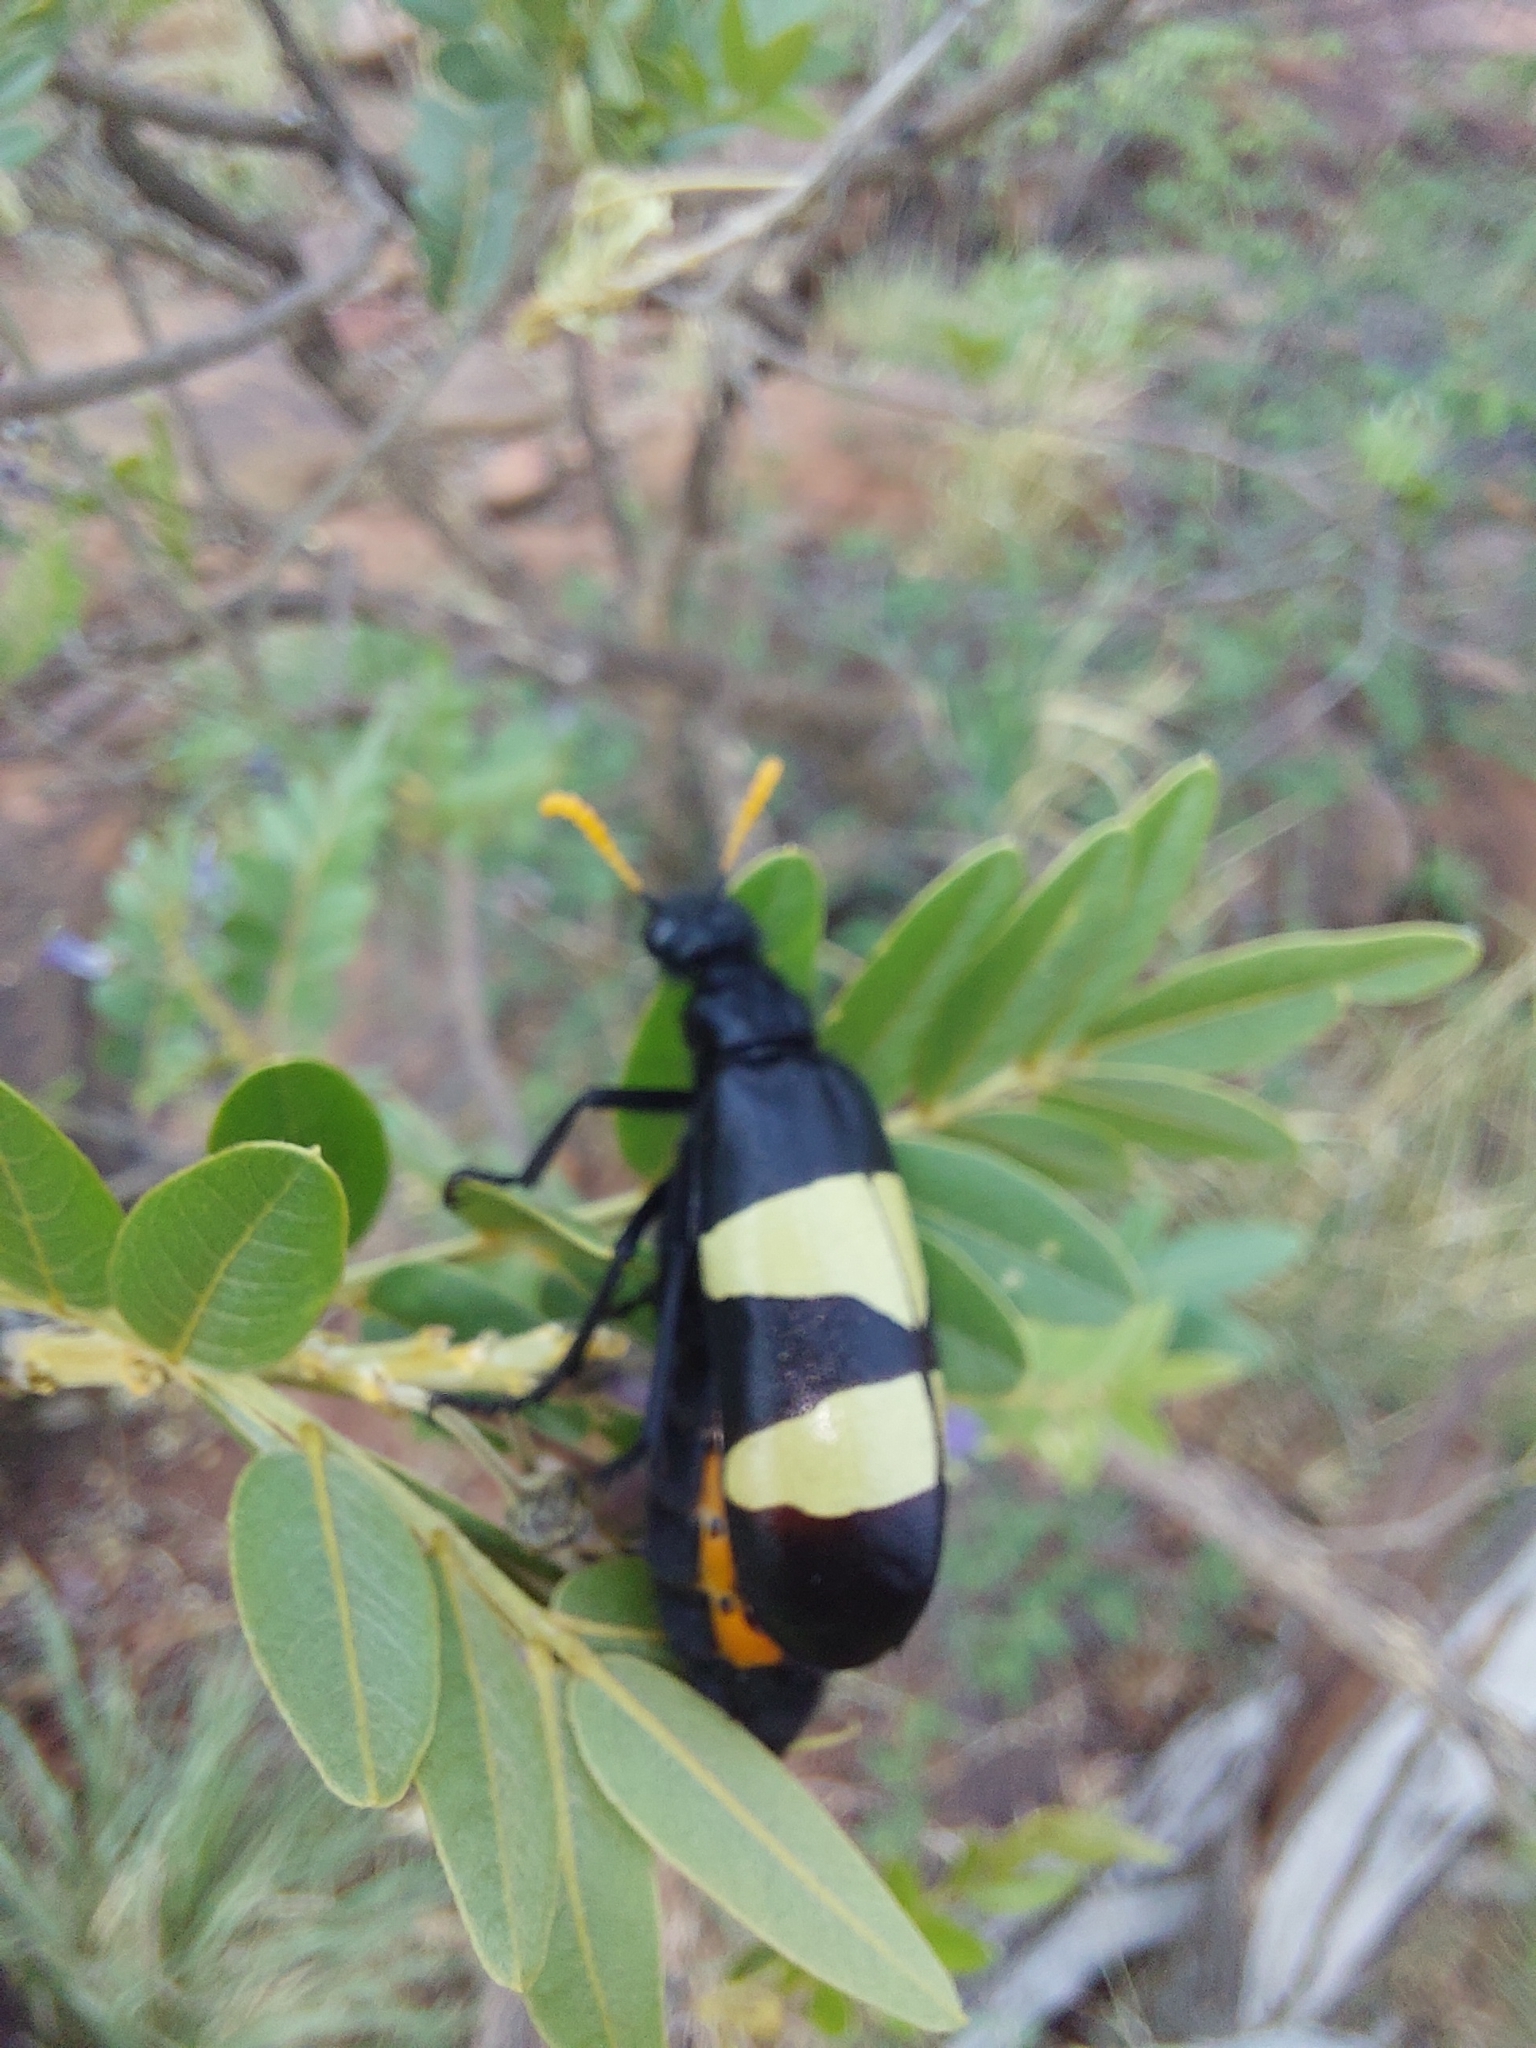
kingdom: Animalia
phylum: Arthropoda
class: Insecta
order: Coleoptera
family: Meloidae
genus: Hycleus
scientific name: Hycleus
